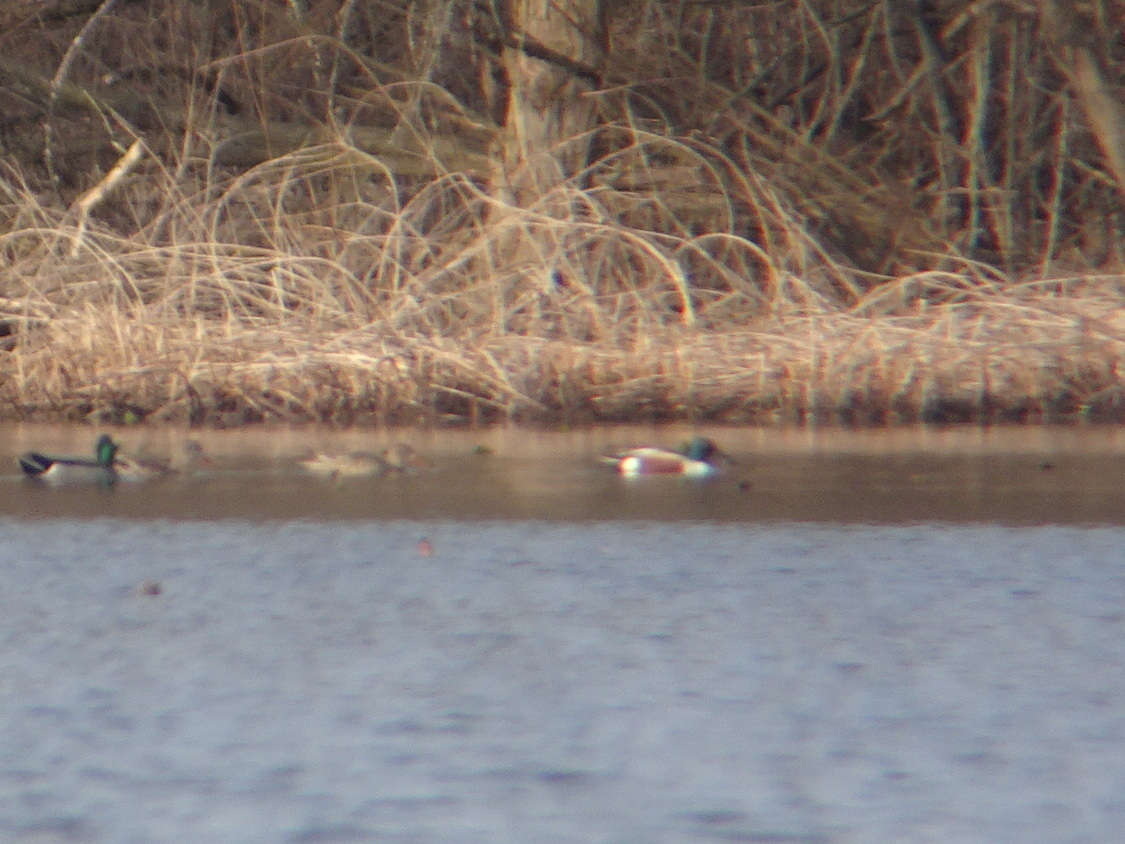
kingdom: Animalia
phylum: Chordata
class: Aves
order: Anseriformes
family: Anatidae
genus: Spatula
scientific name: Spatula clypeata
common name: Northern shoveler
